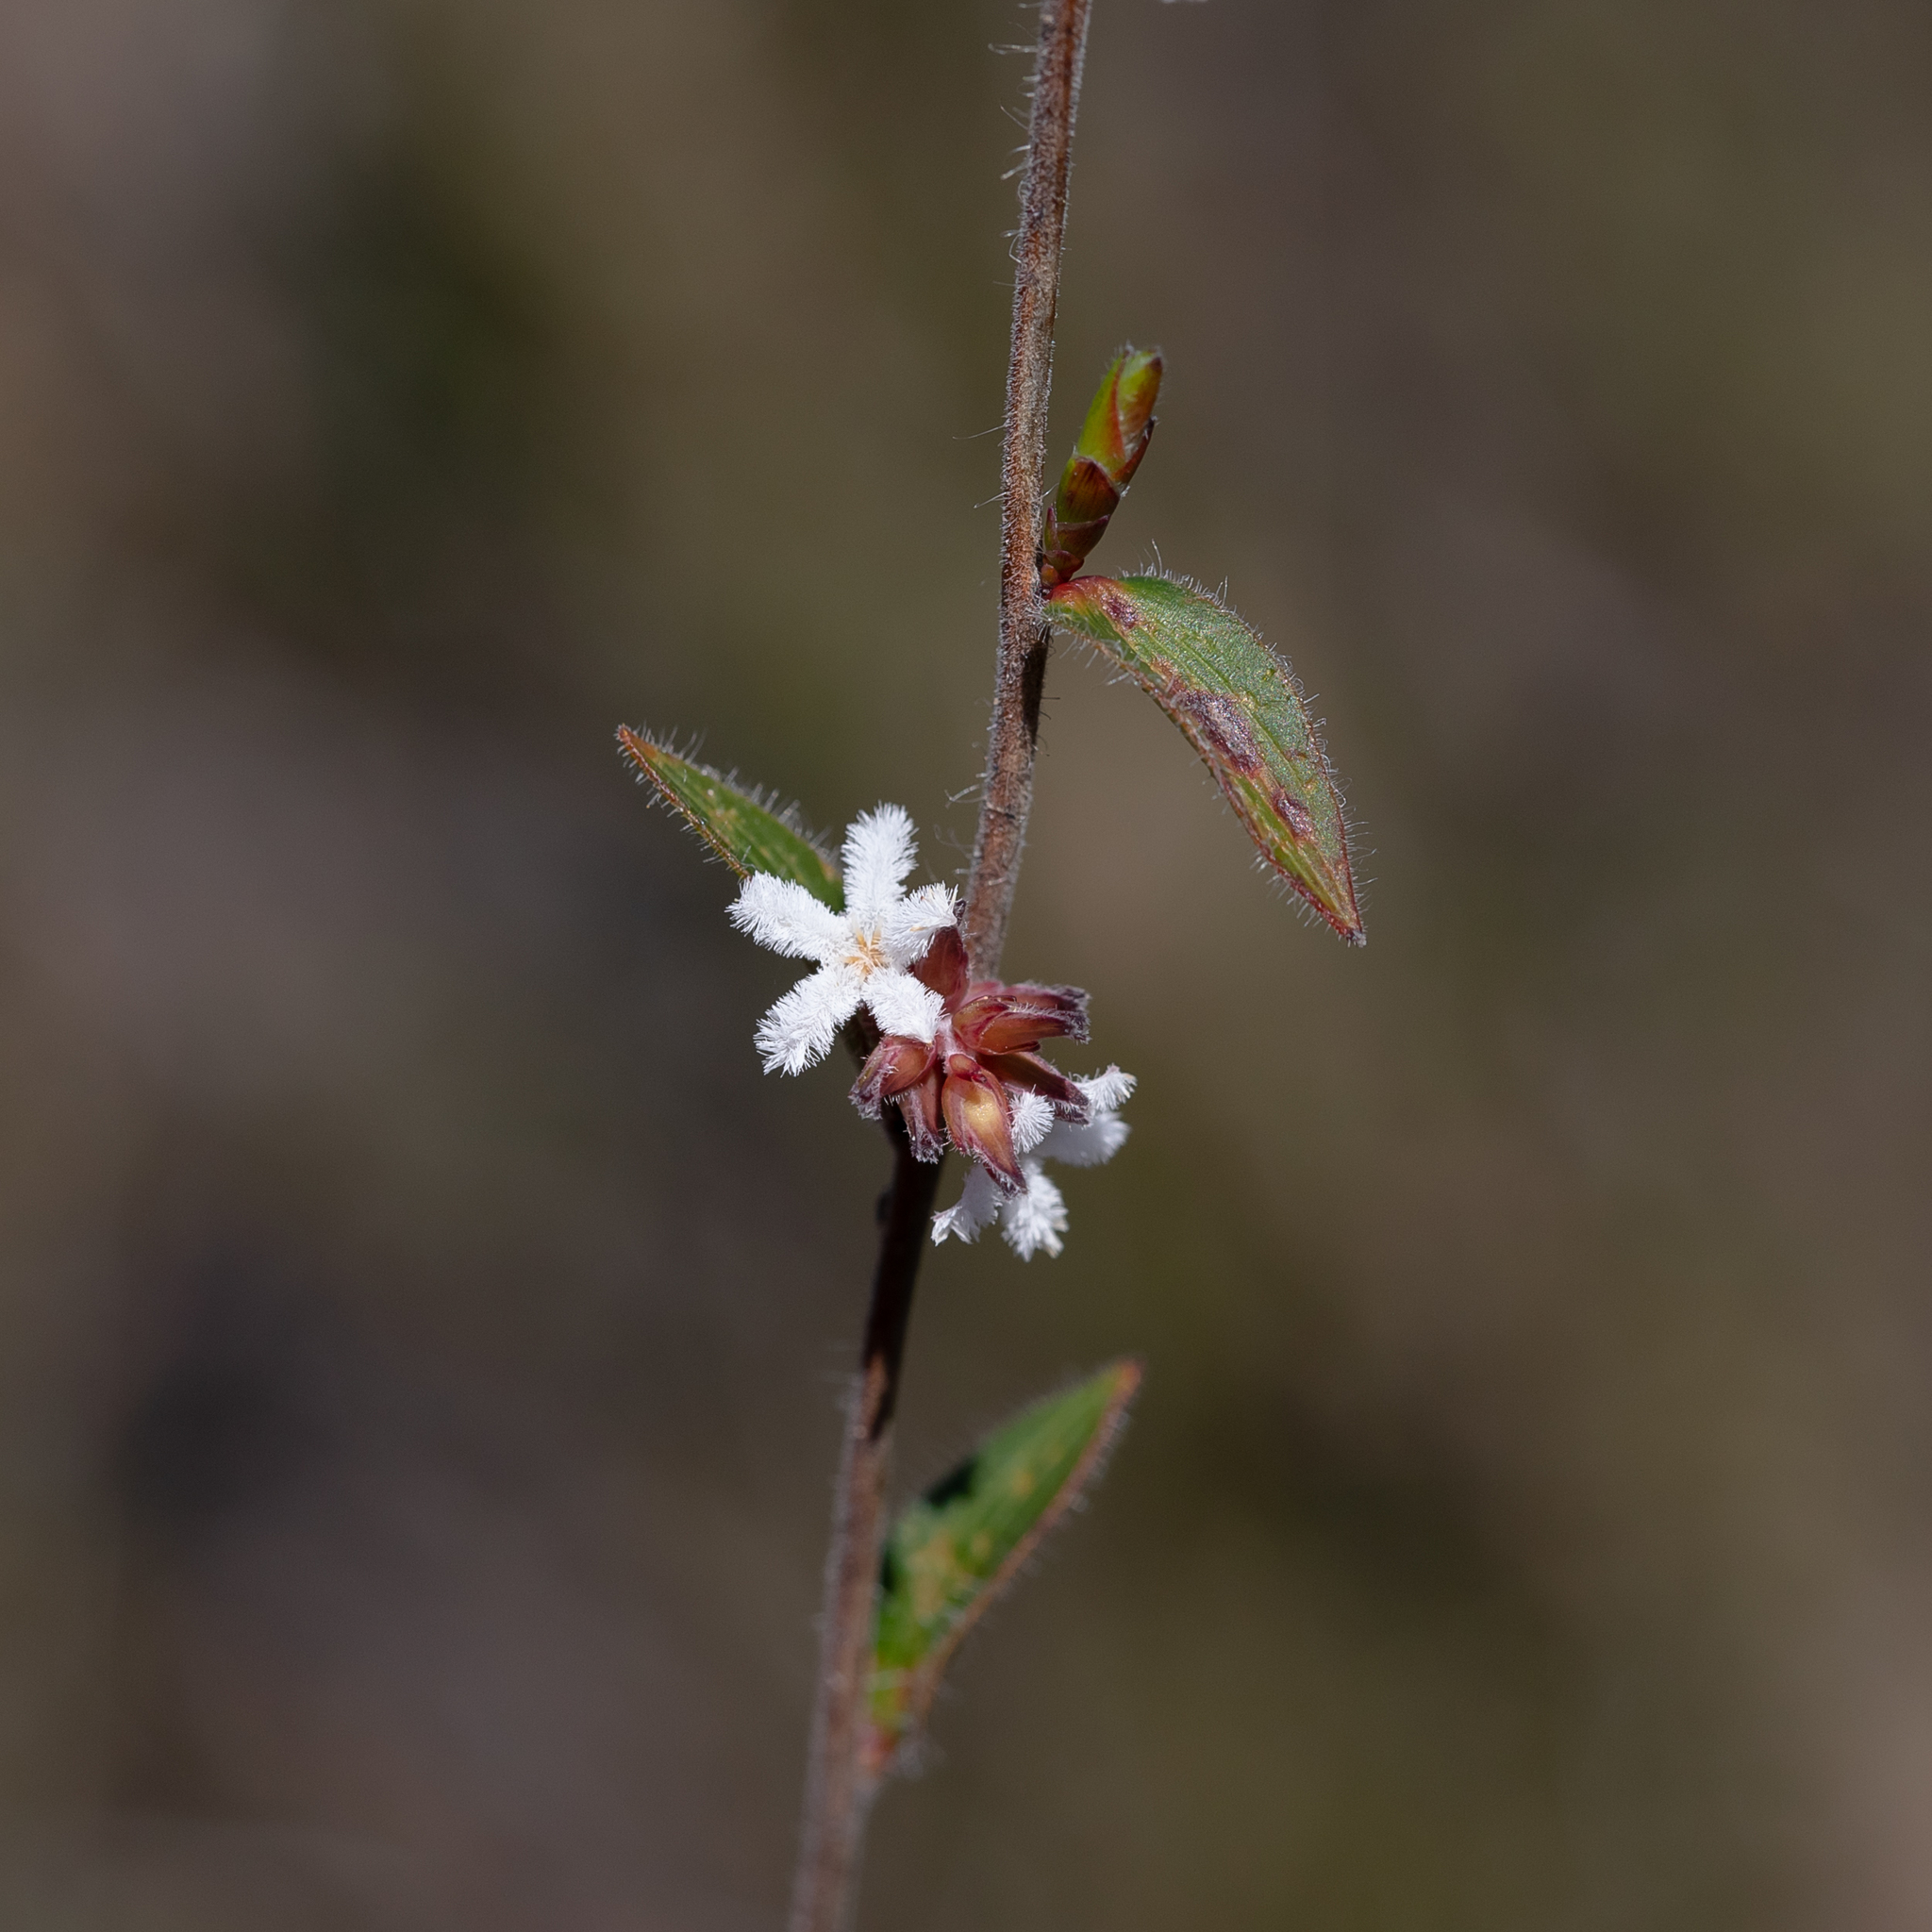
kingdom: Plantae
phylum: Tracheophyta
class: Magnoliopsida
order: Ericales
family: Ericaceae
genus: Leucopogon
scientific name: Leucopogon concurvus
